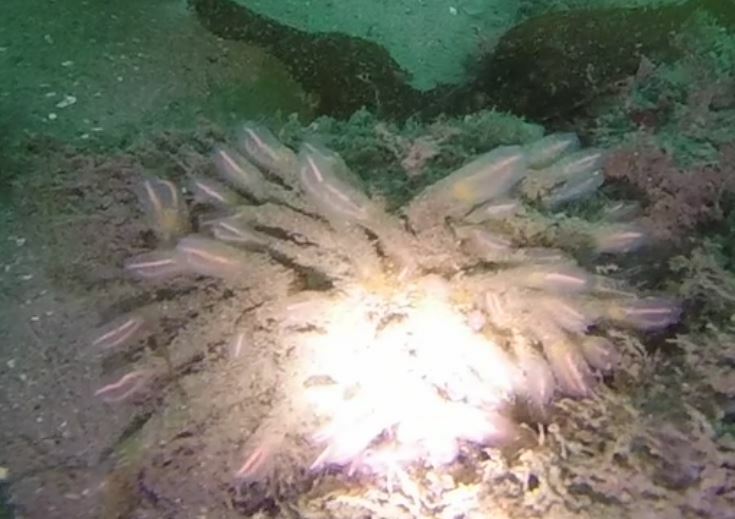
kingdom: Animalia
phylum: Chordata
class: Ascidiacea
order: Aplousobranchia
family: Clavelinidae
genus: Clavelina
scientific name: Clavelina huntsmani
